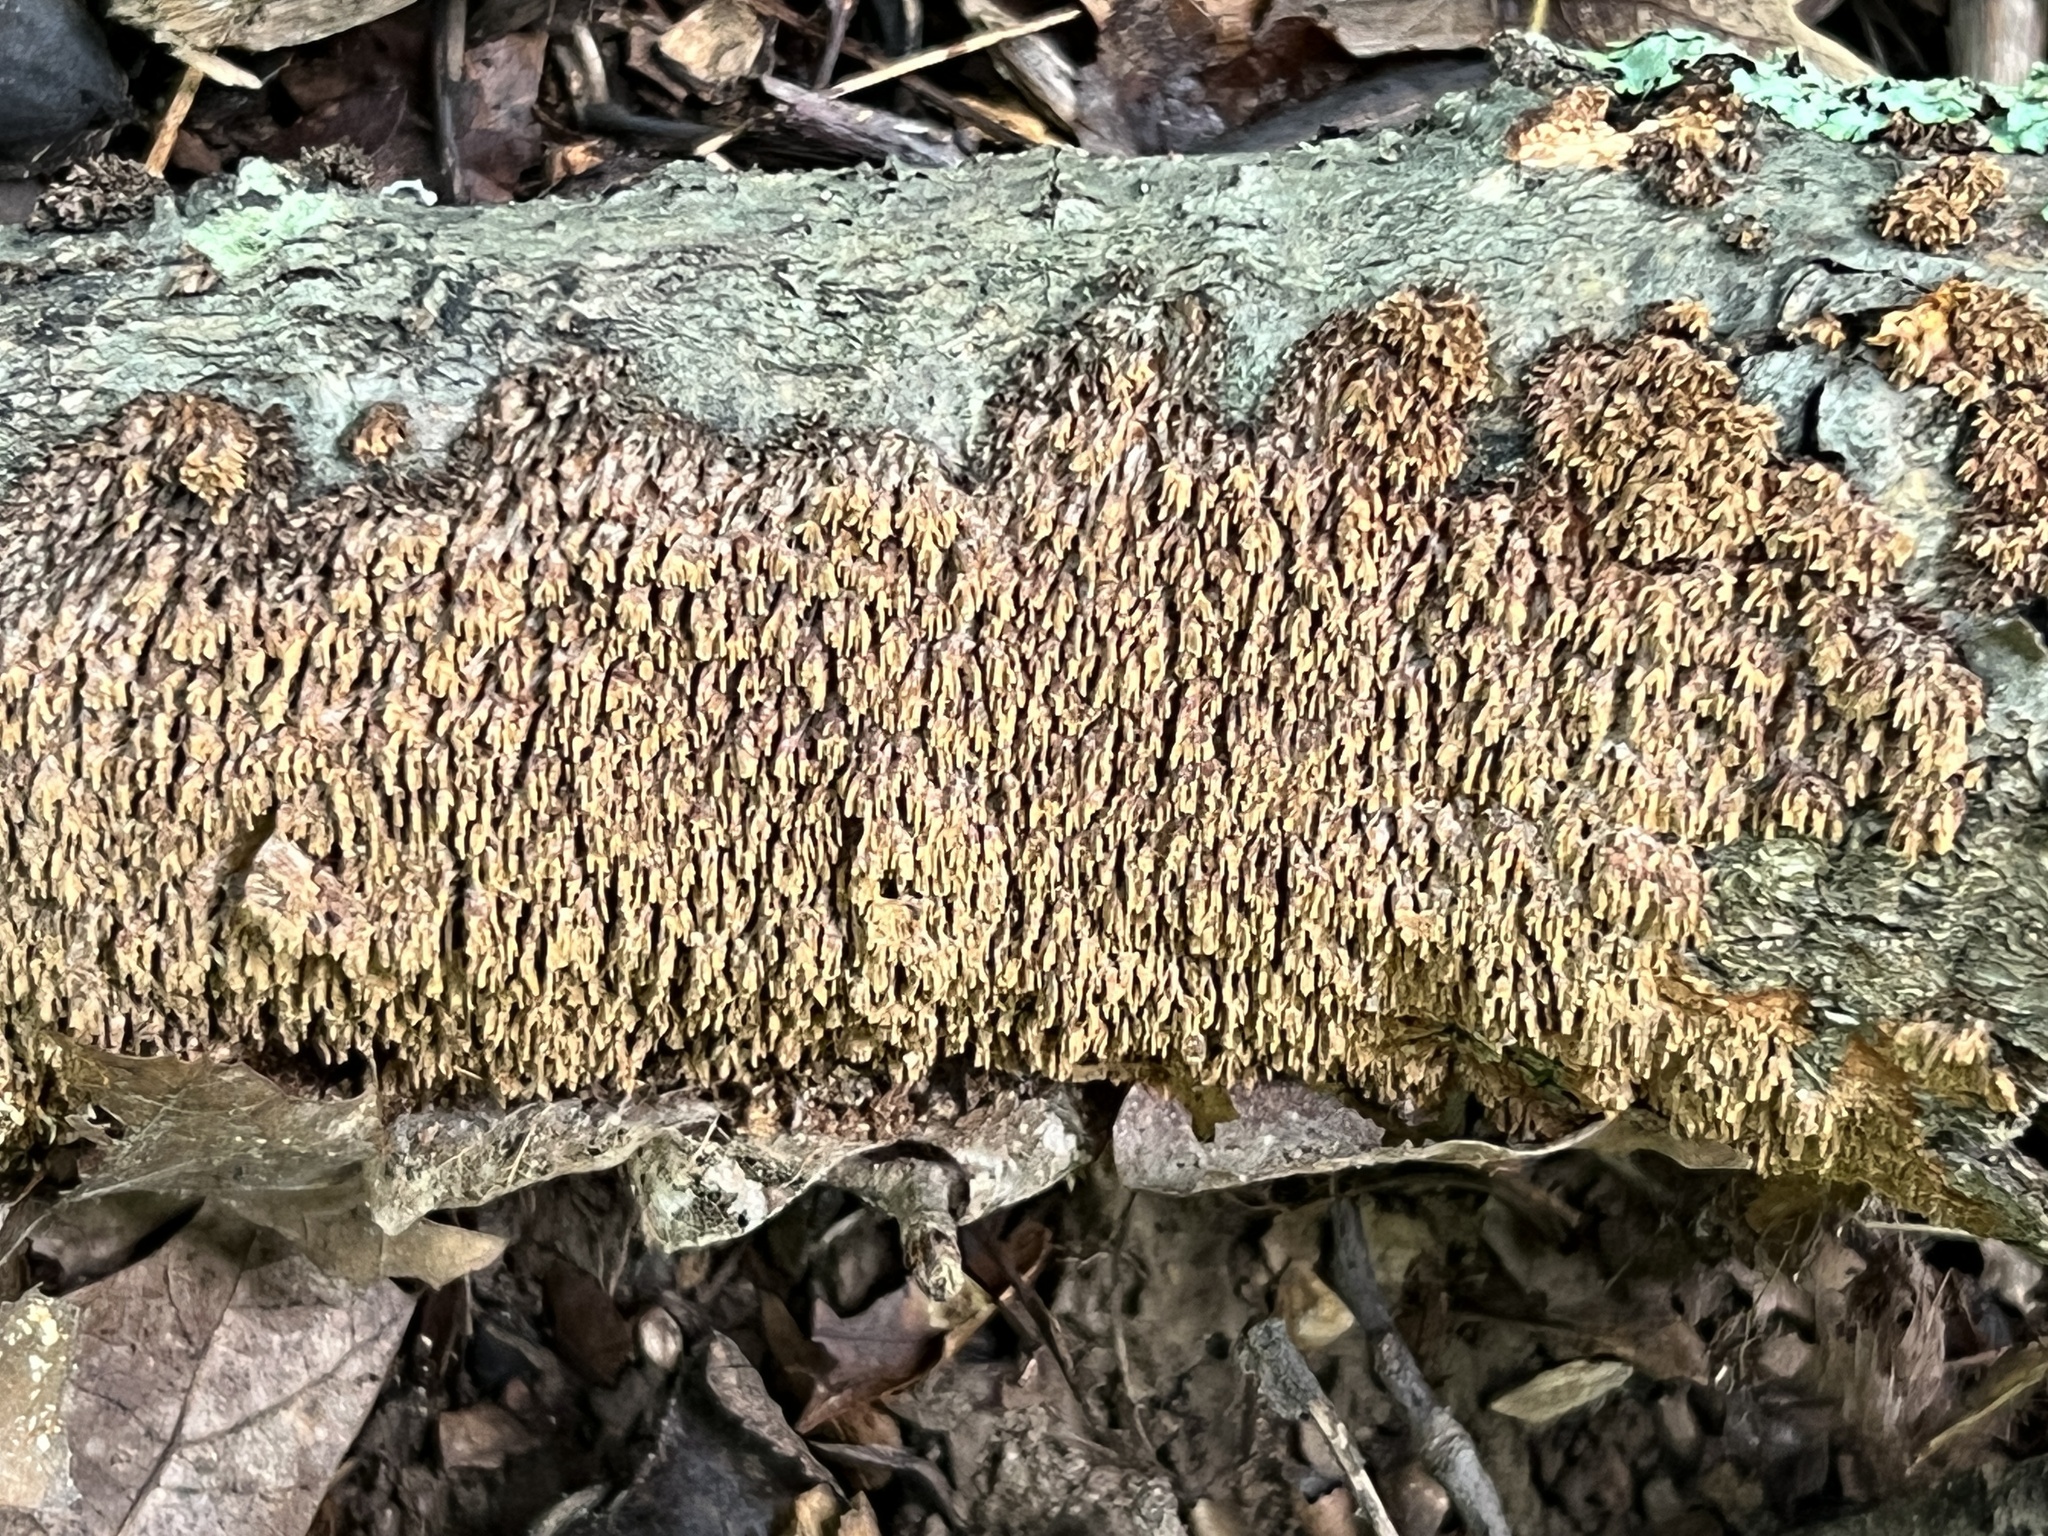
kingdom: Fungi
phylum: Basidiomycota
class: Agaricomycetes
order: Hymenochaetales
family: Hymenochaetaceae
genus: Hydnoporia
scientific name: Hydnoporia olivacea
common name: Brown-toothed crust fungus
